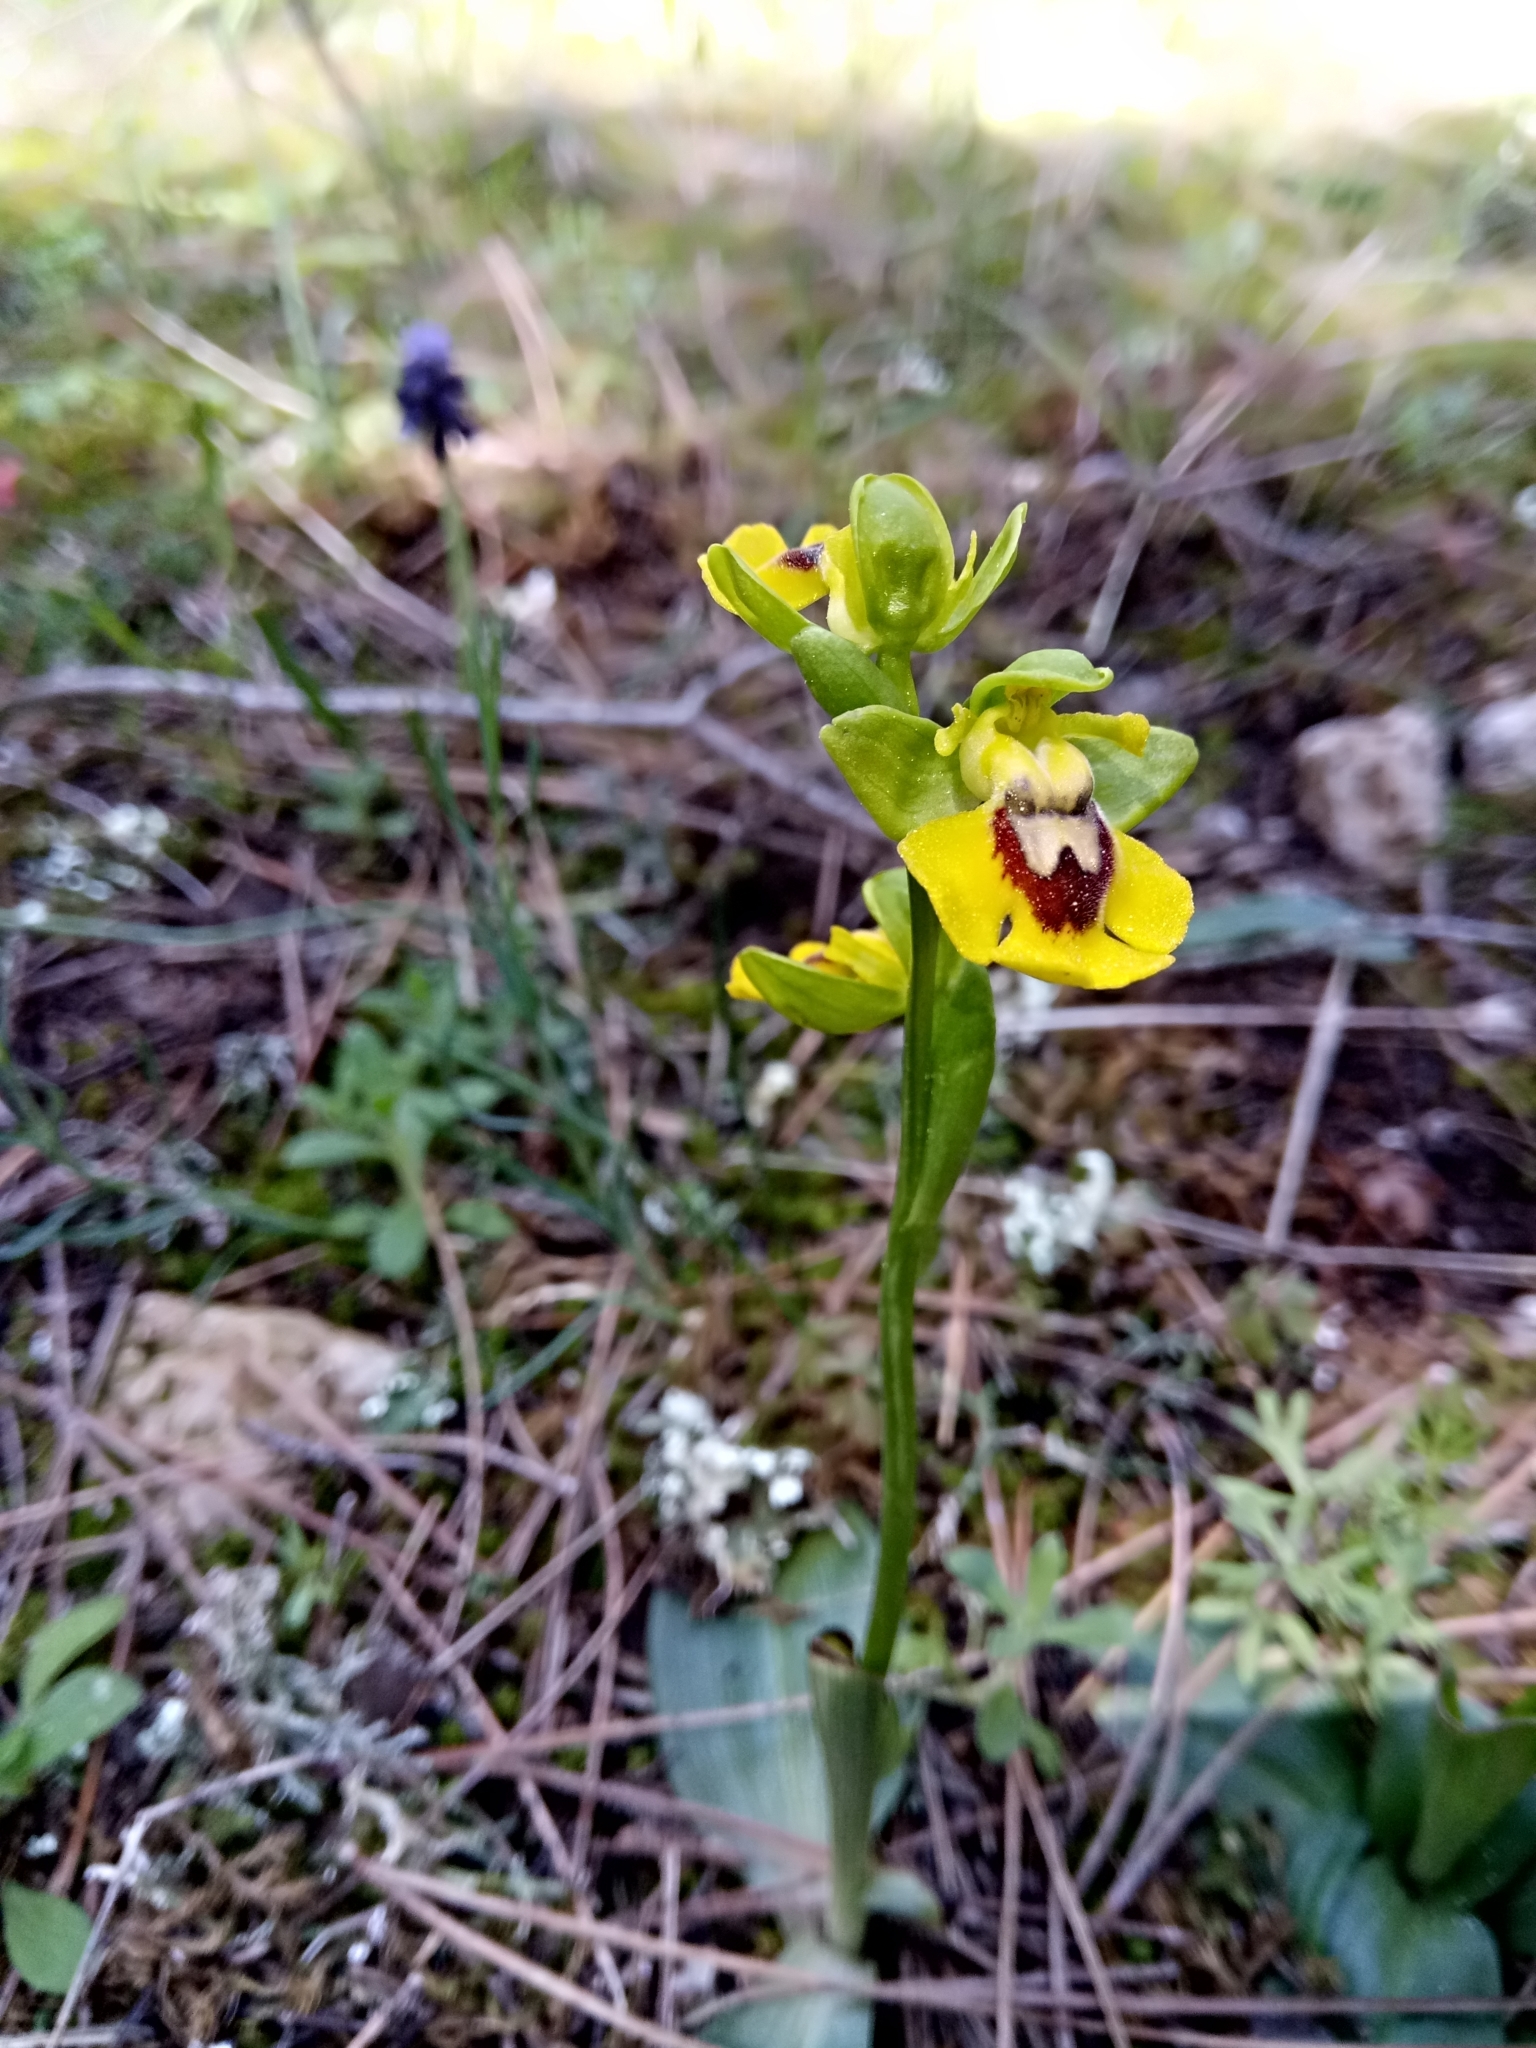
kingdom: Plantae
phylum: Tracheophyta
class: Liliopsida
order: Asparagales
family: Orchidaceae
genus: Ophrys
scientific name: Ophrys lutea
